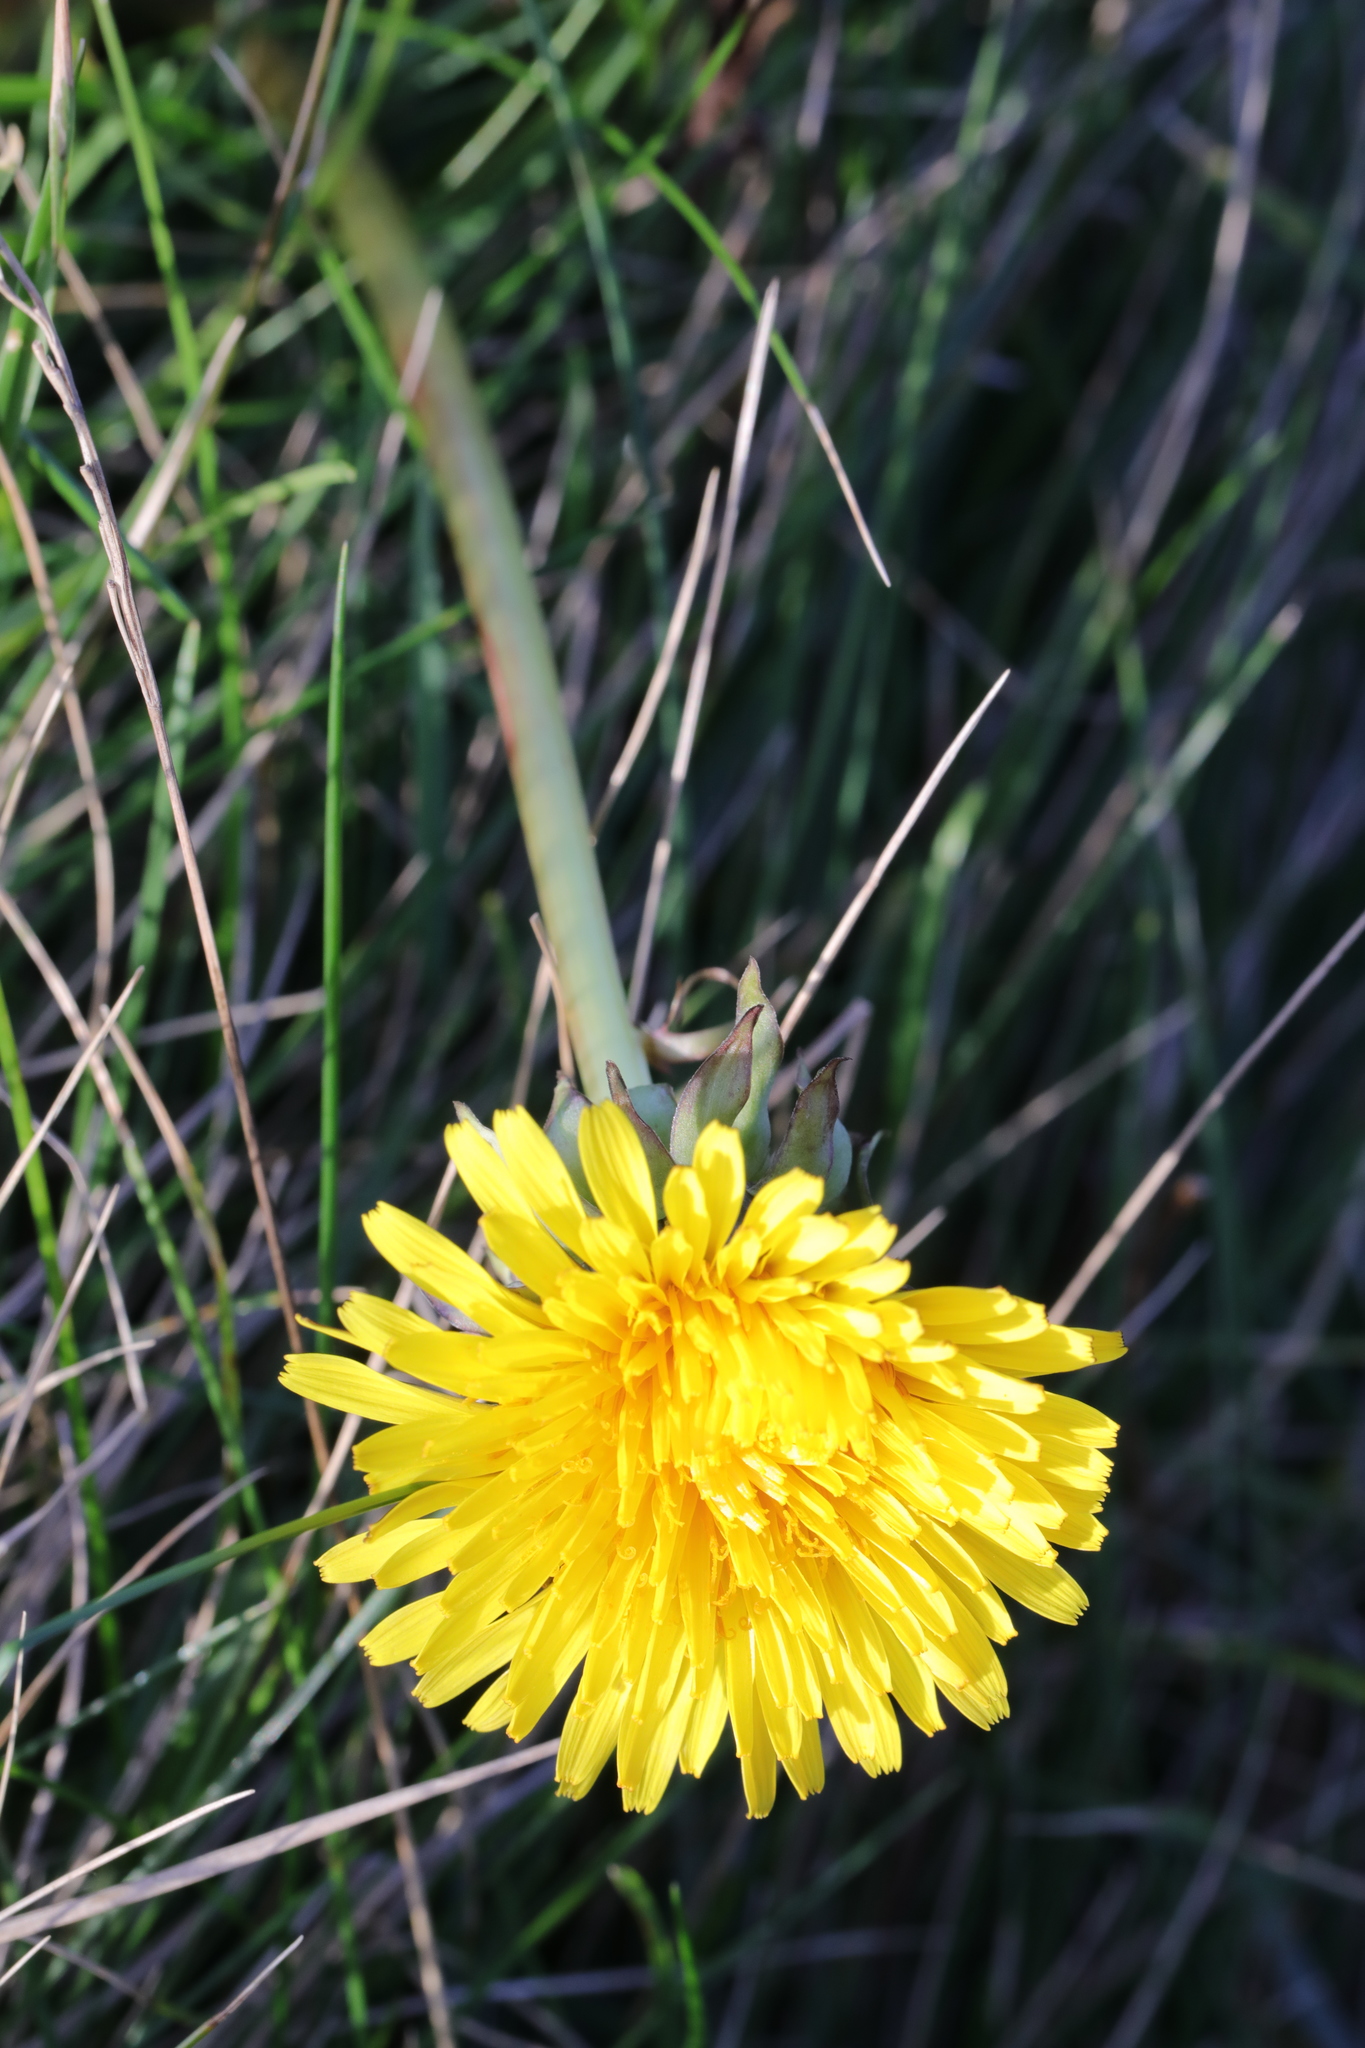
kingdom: Plantae
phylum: Tracheophyta
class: Magnoliopsida
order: Asterales
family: Asteraceae
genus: Taraxacum
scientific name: Taraxacum officinale
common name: Common dandelion
